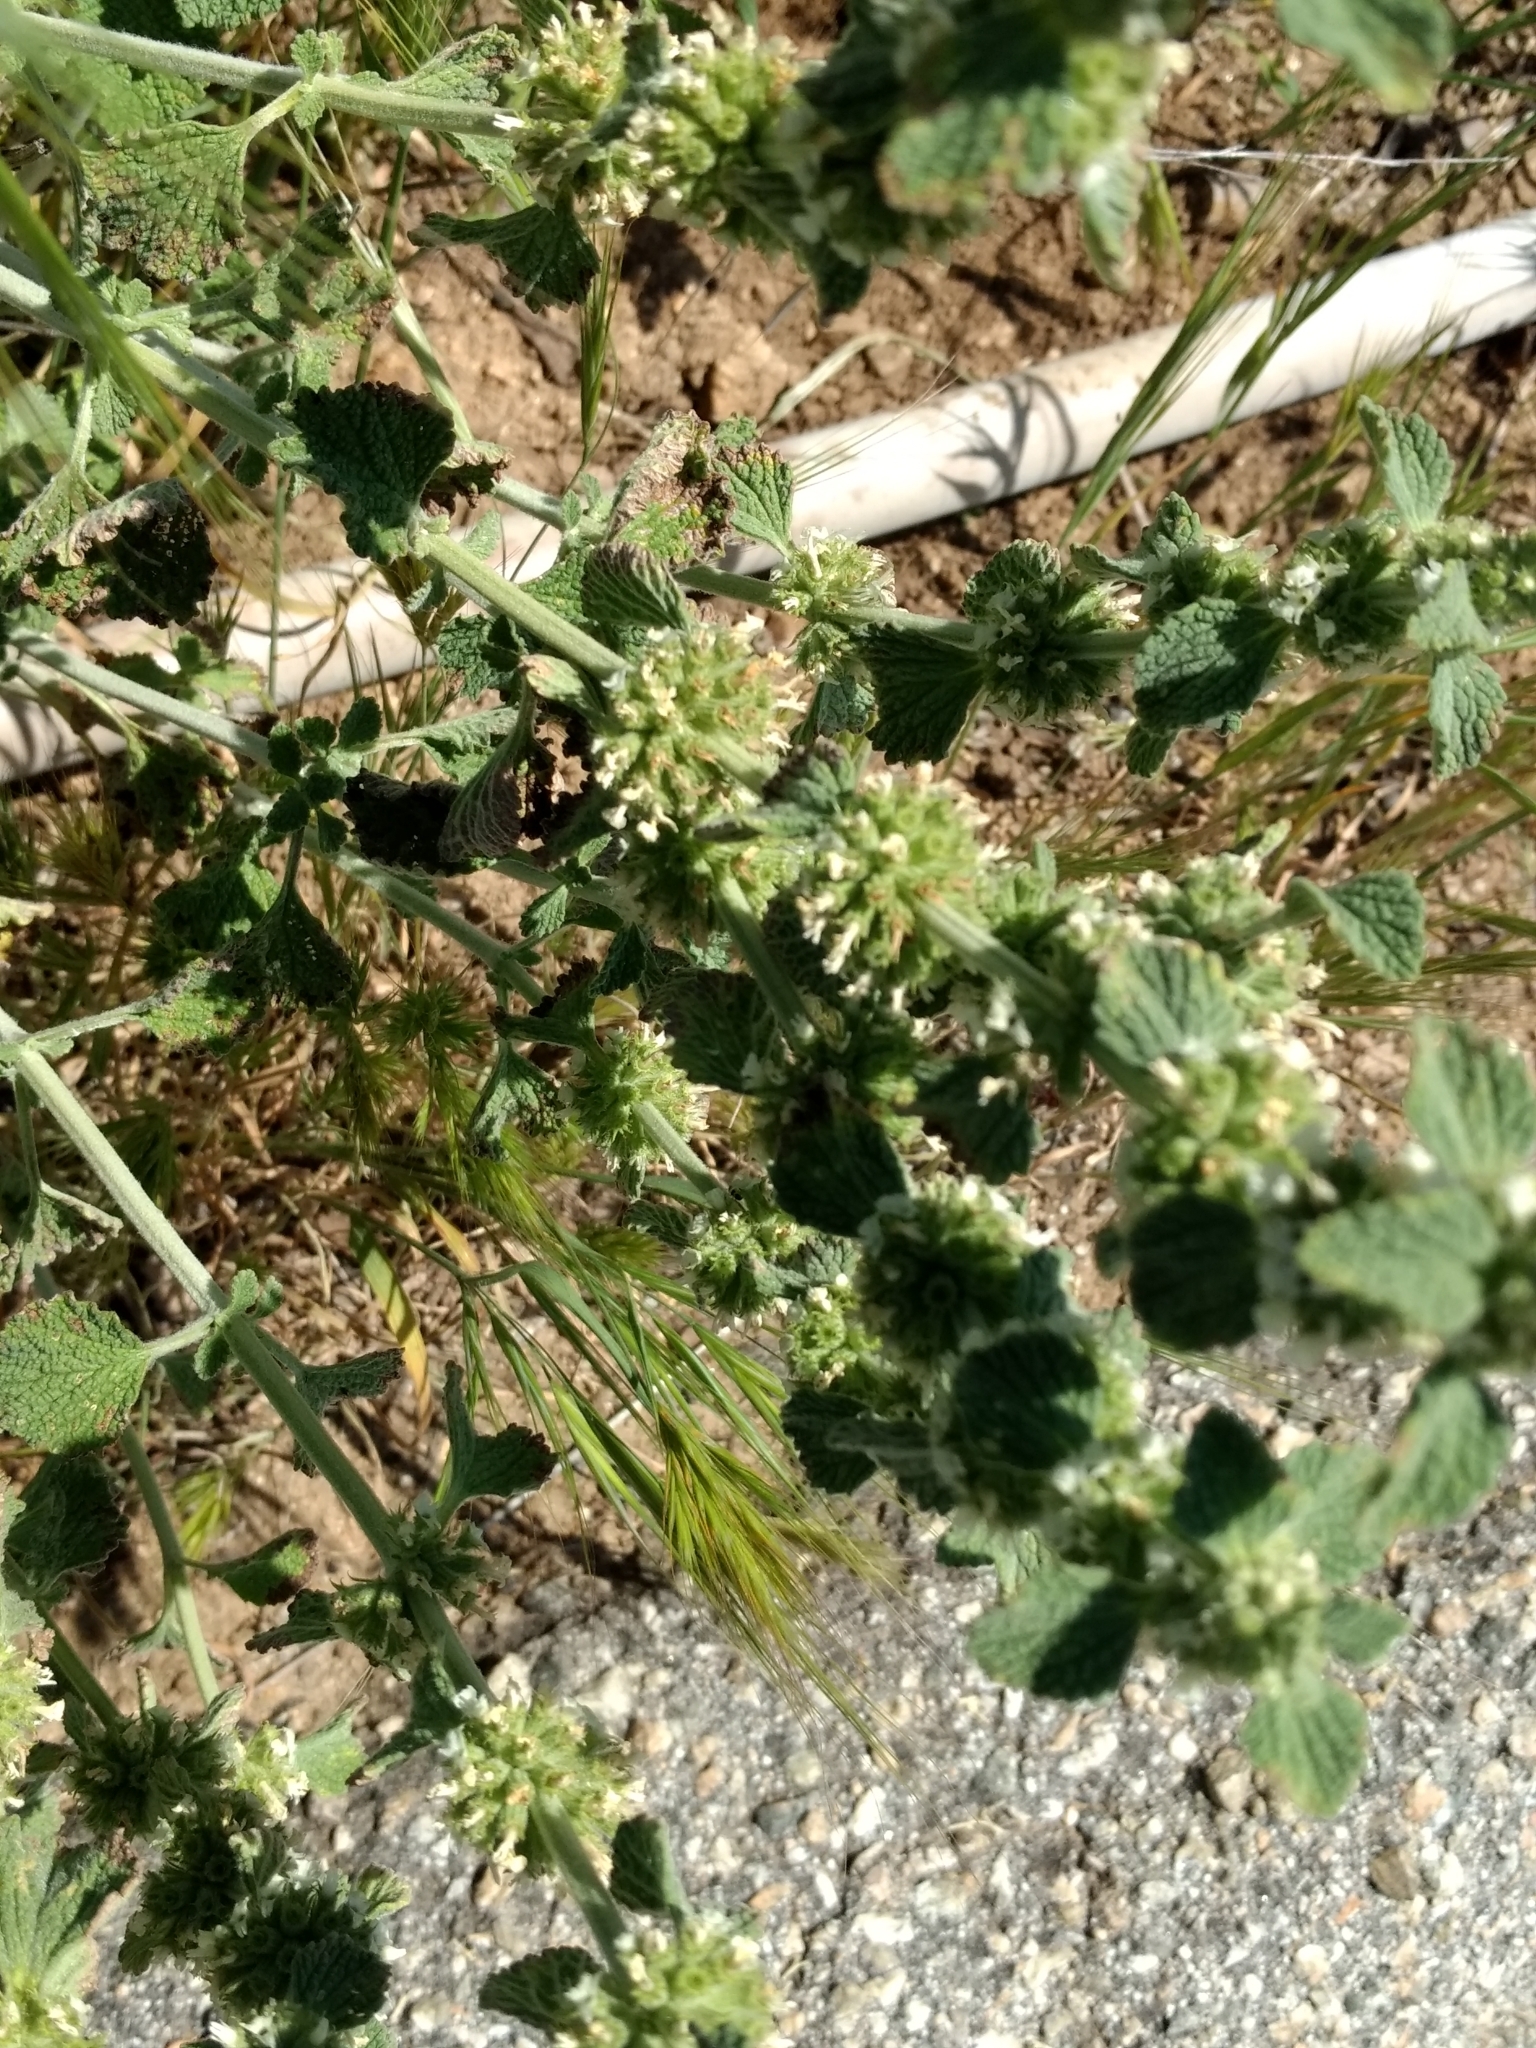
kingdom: Plantae
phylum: Tracheophyta
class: Magnoliopsida
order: Lamiales
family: Lamiaceae
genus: Marrubium
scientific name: Marrubium vulgare
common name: Horehound
